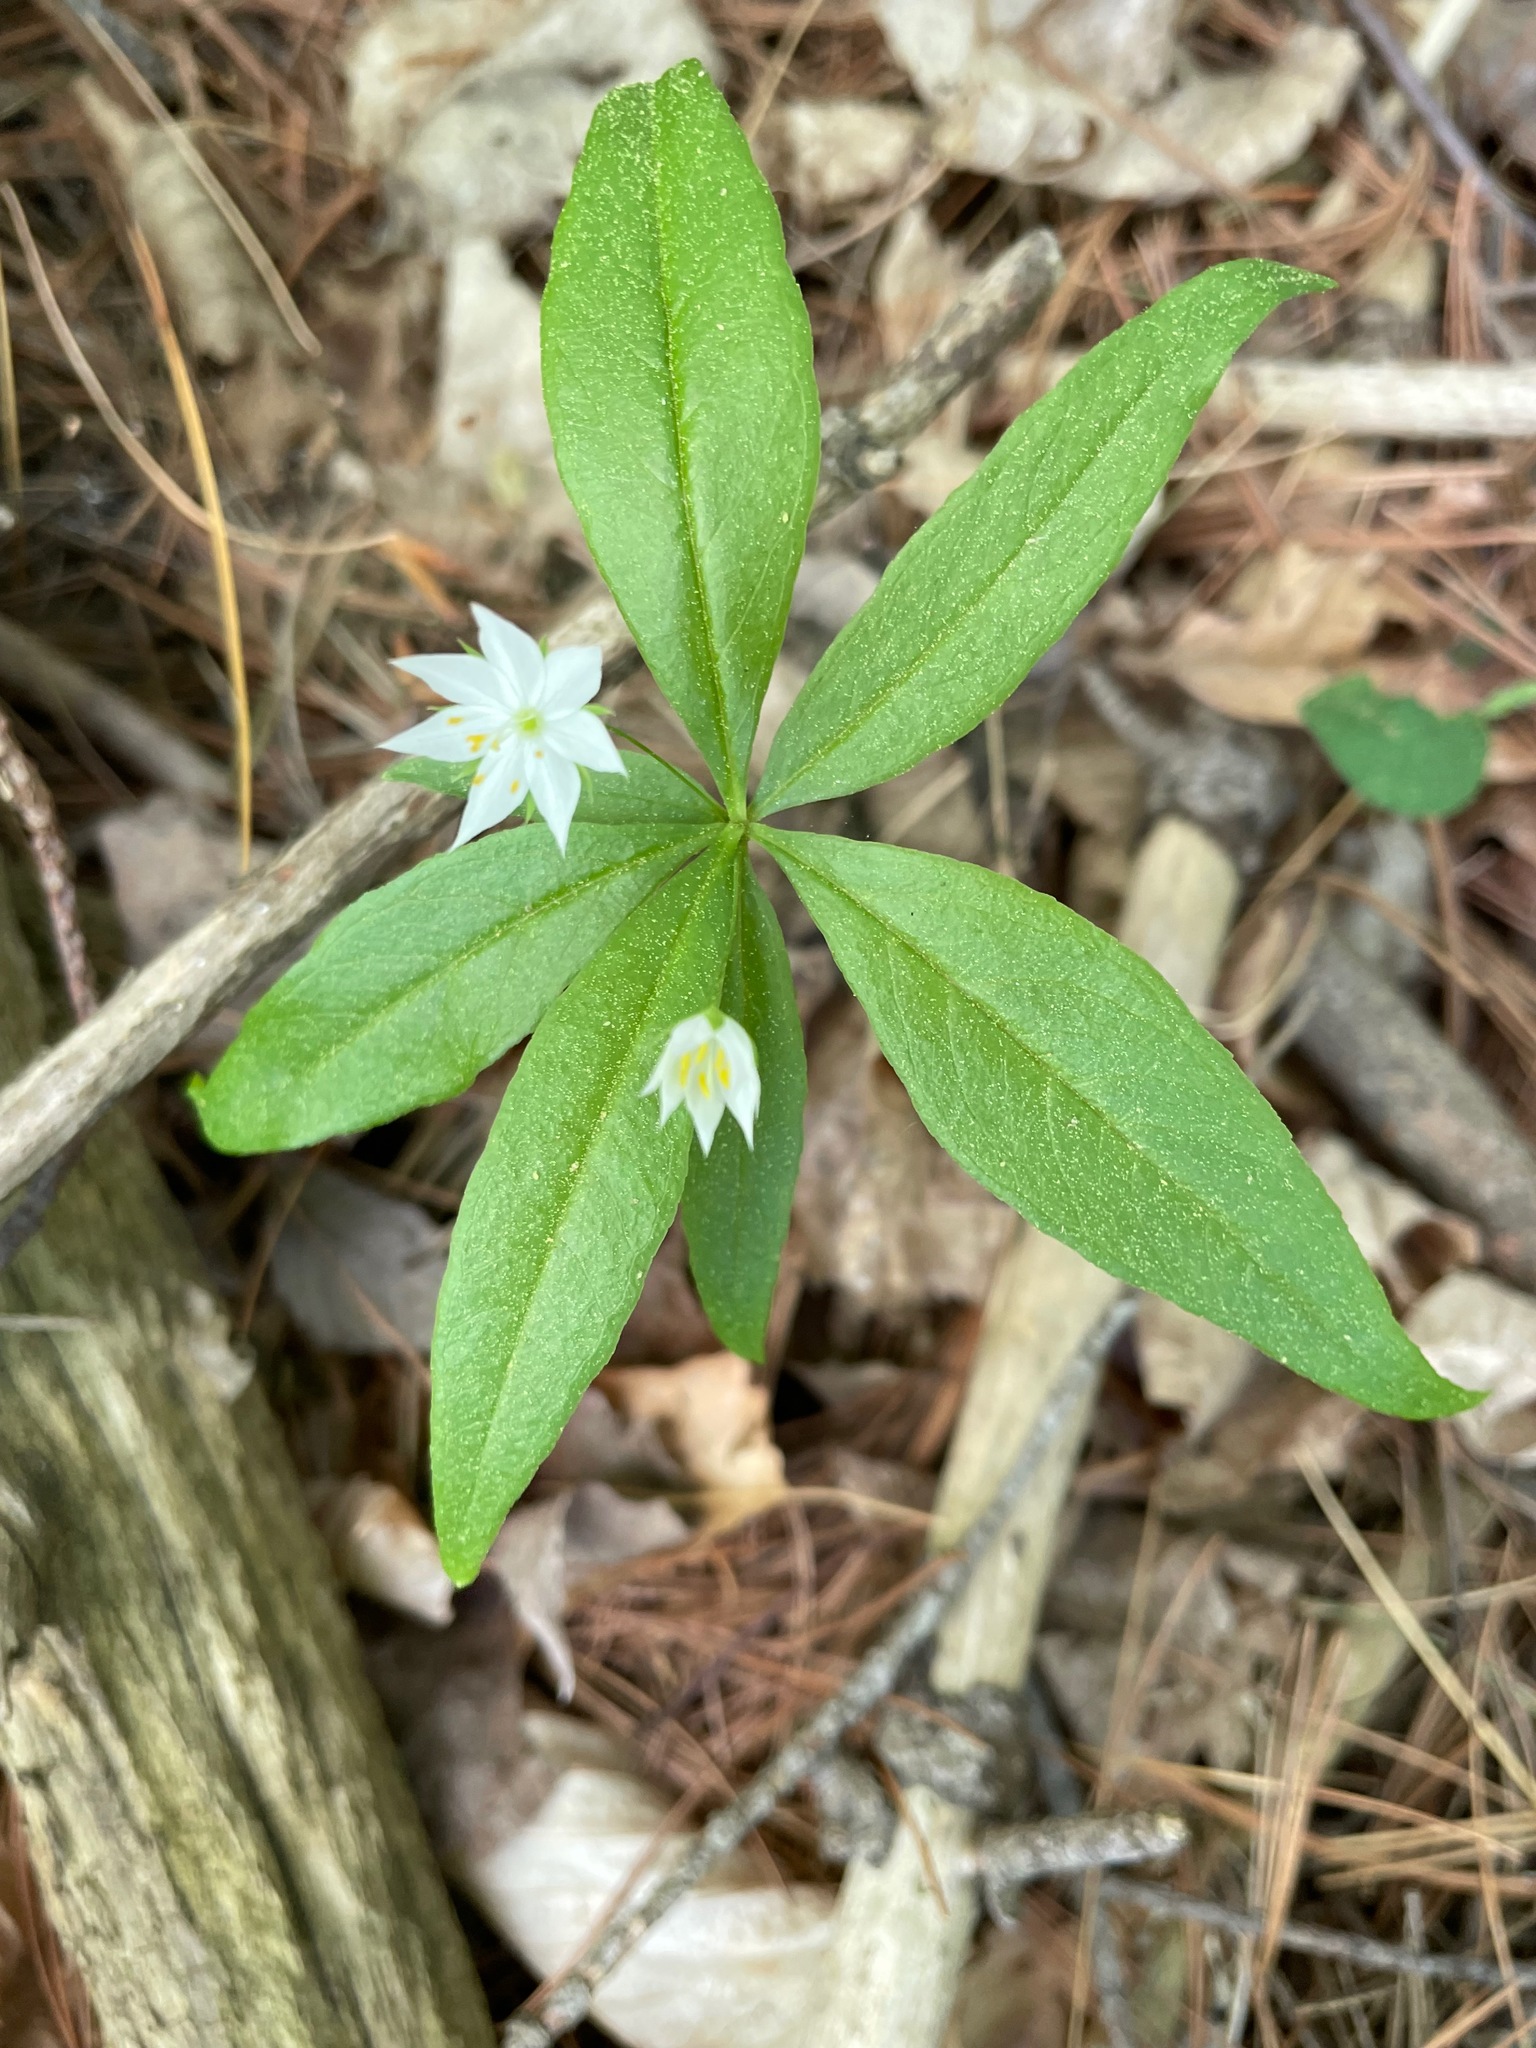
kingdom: Plantae
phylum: Tracheophyta
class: Magnoliopsida
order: Ericales
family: Primulaceae
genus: Lysimachia
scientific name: Lysimachia borealis
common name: American starflower
